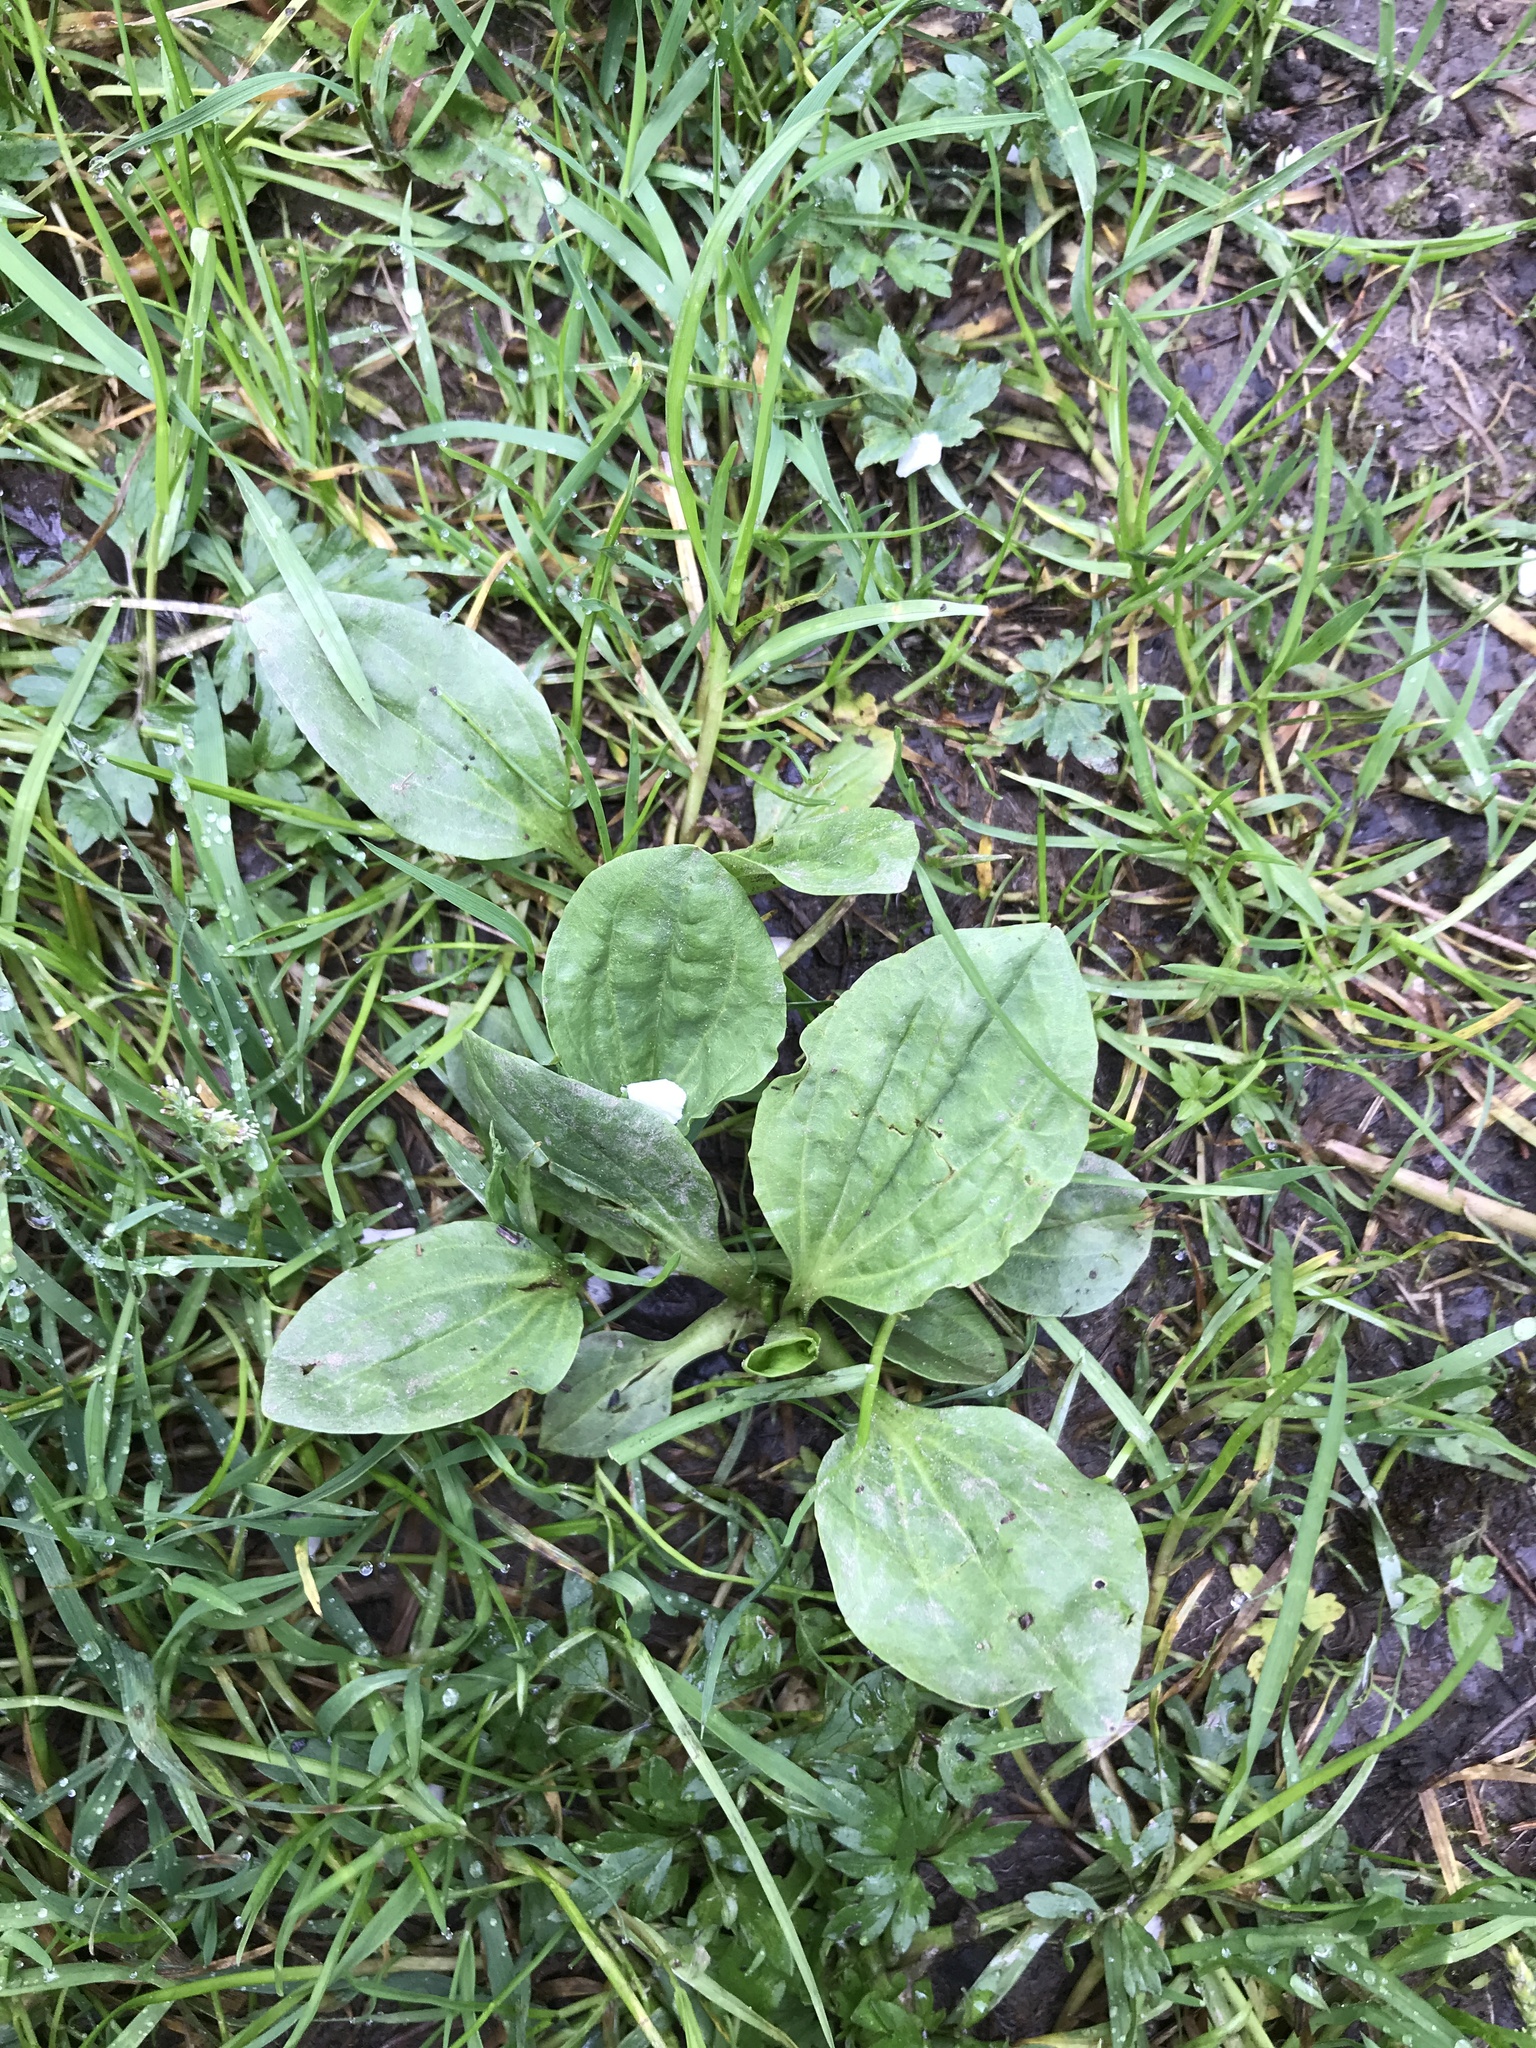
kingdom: Plantae
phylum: Tracheophyta
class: Magnoliopsida
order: Lamiales
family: Plantaginaceae
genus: Plantago
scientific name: Plantago major
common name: Common plantain
